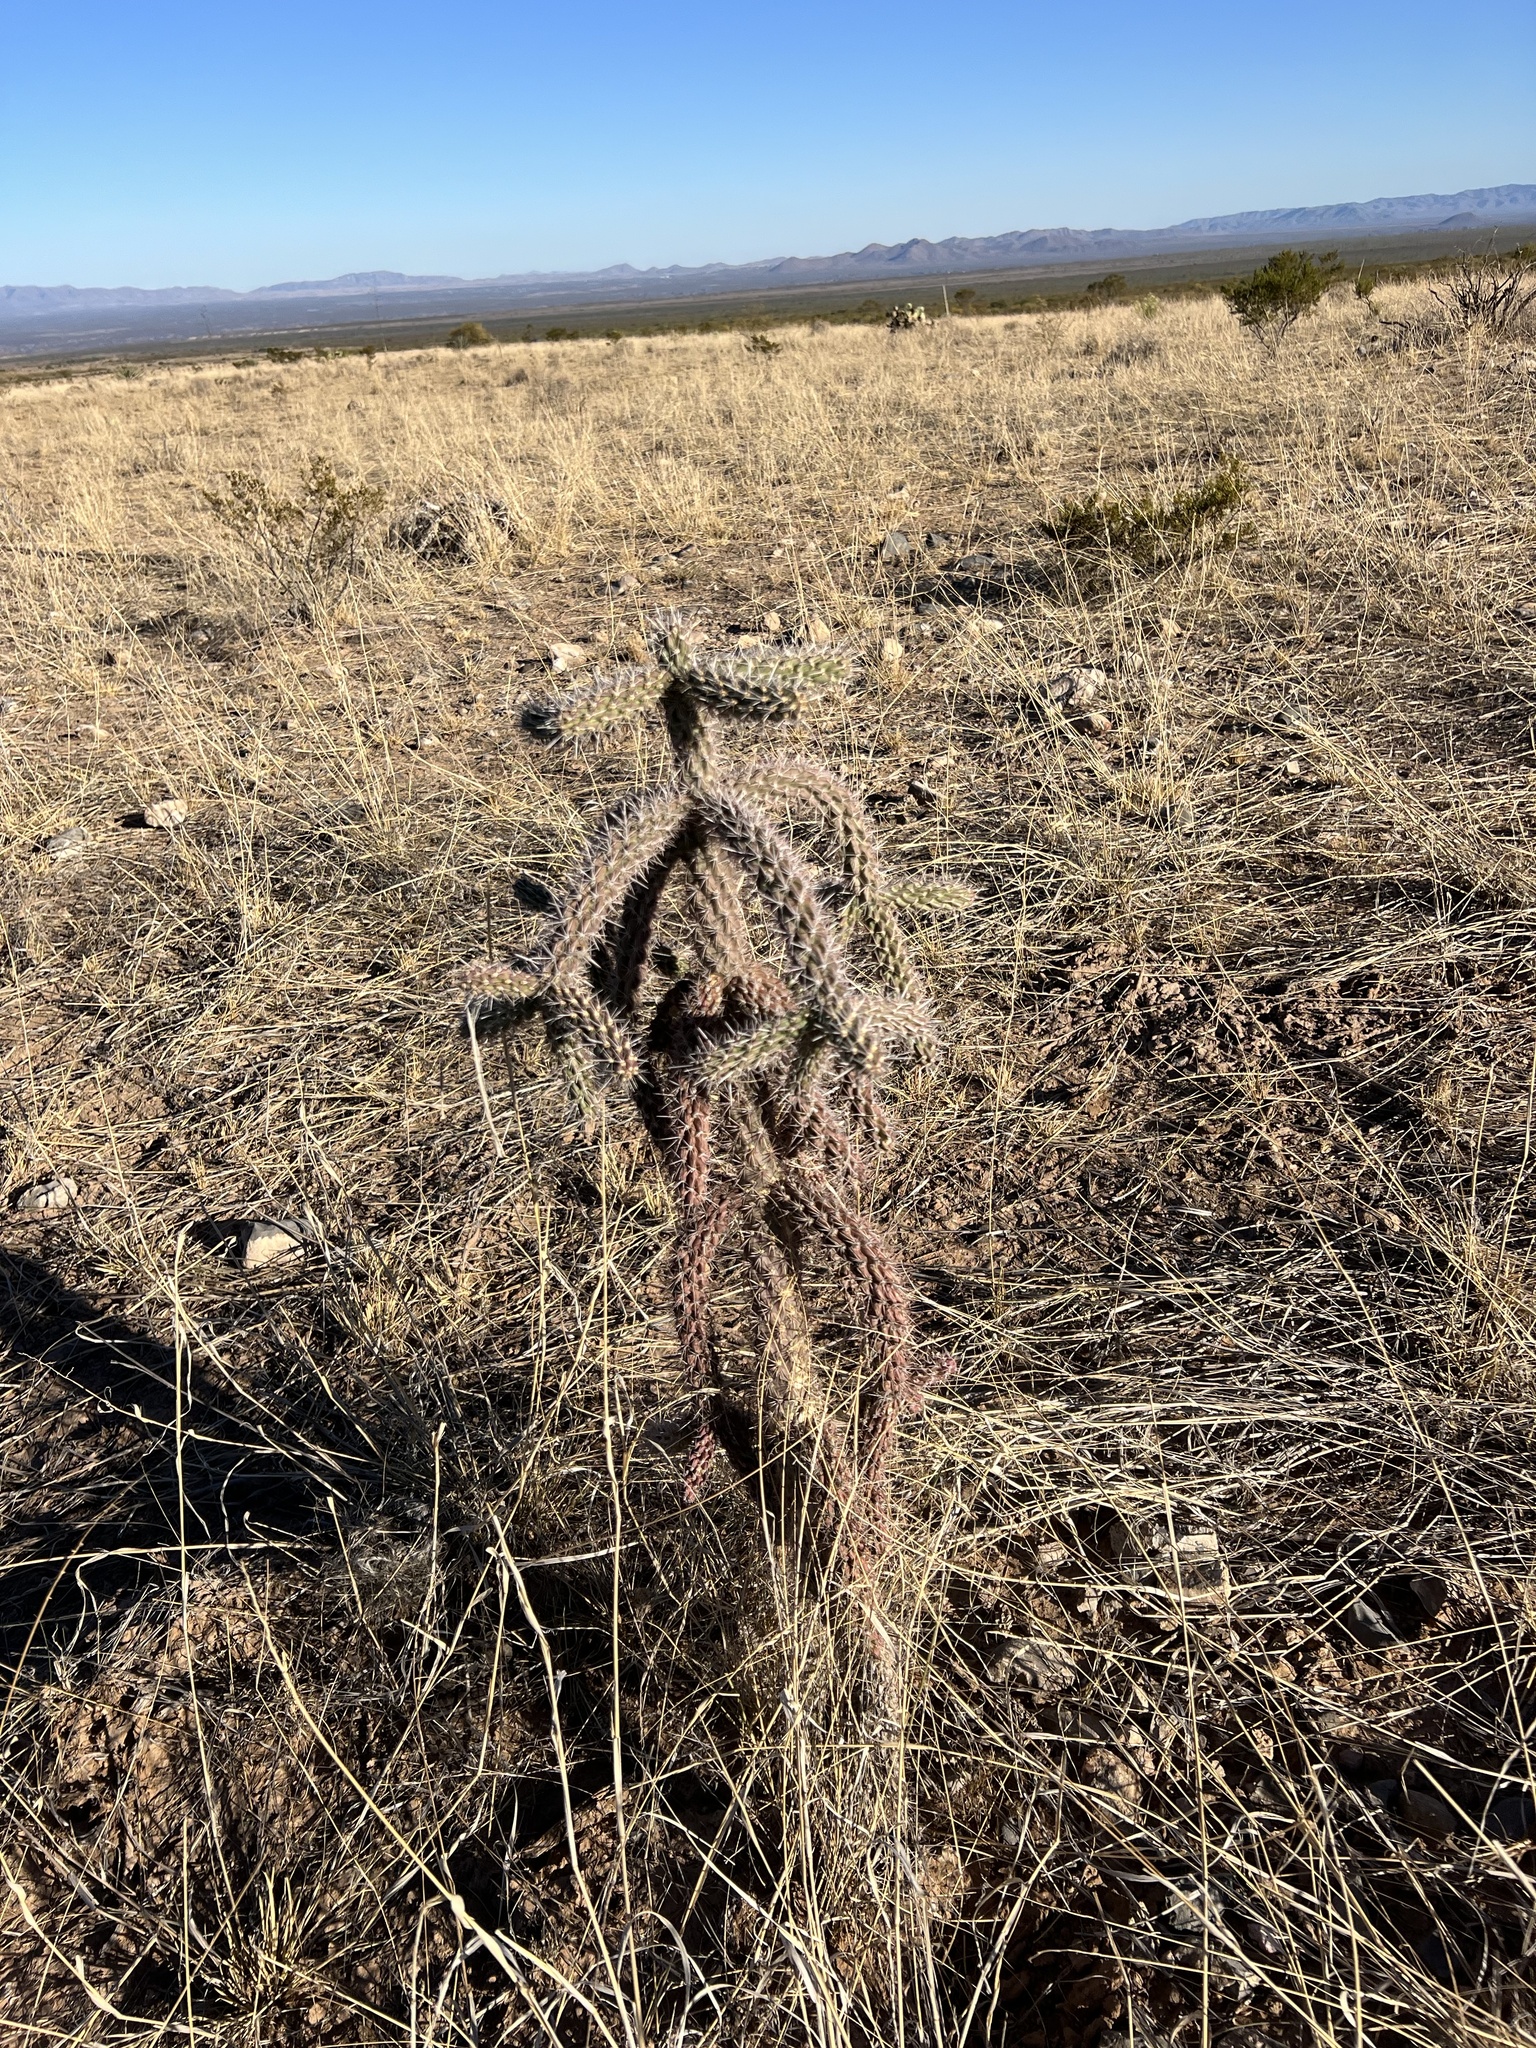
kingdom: Plantae
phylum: Tracheophyta
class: Magnoliopsida
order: Caryophyllales
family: Cactaceae
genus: Cylindropuntia
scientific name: Cylindropuntia imbricata
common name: Candelabrum cactus
